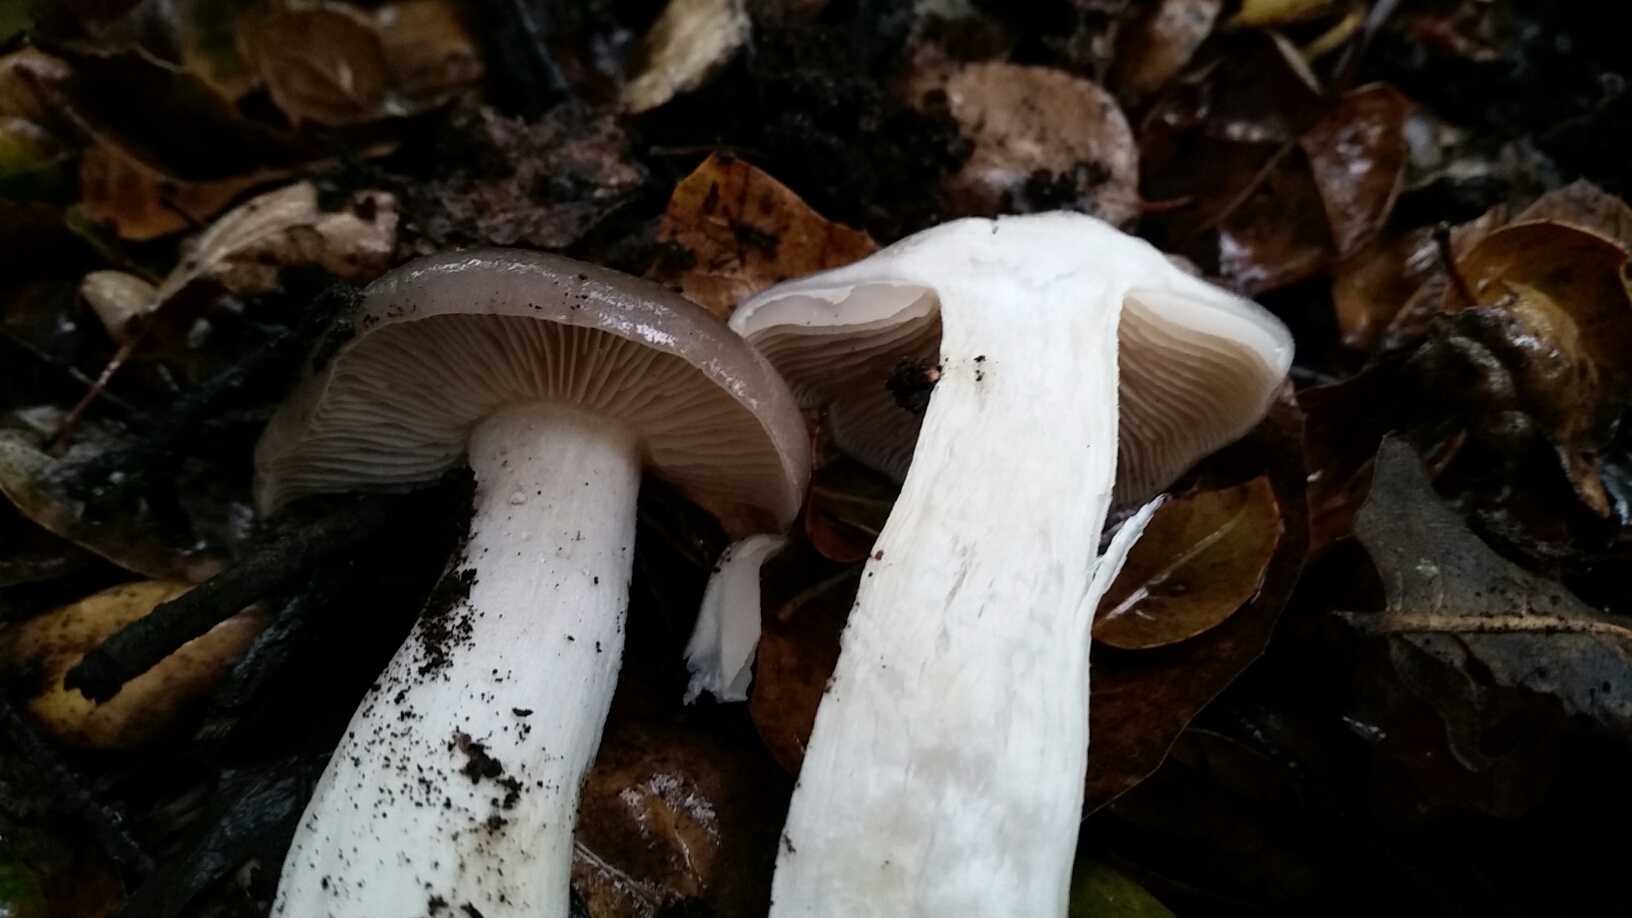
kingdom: Fungi
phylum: Basidiomycota
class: Agaricomycetes
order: Agaricales
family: Entolomataceae
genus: Entoloma
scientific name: Entoloma ferruginans
